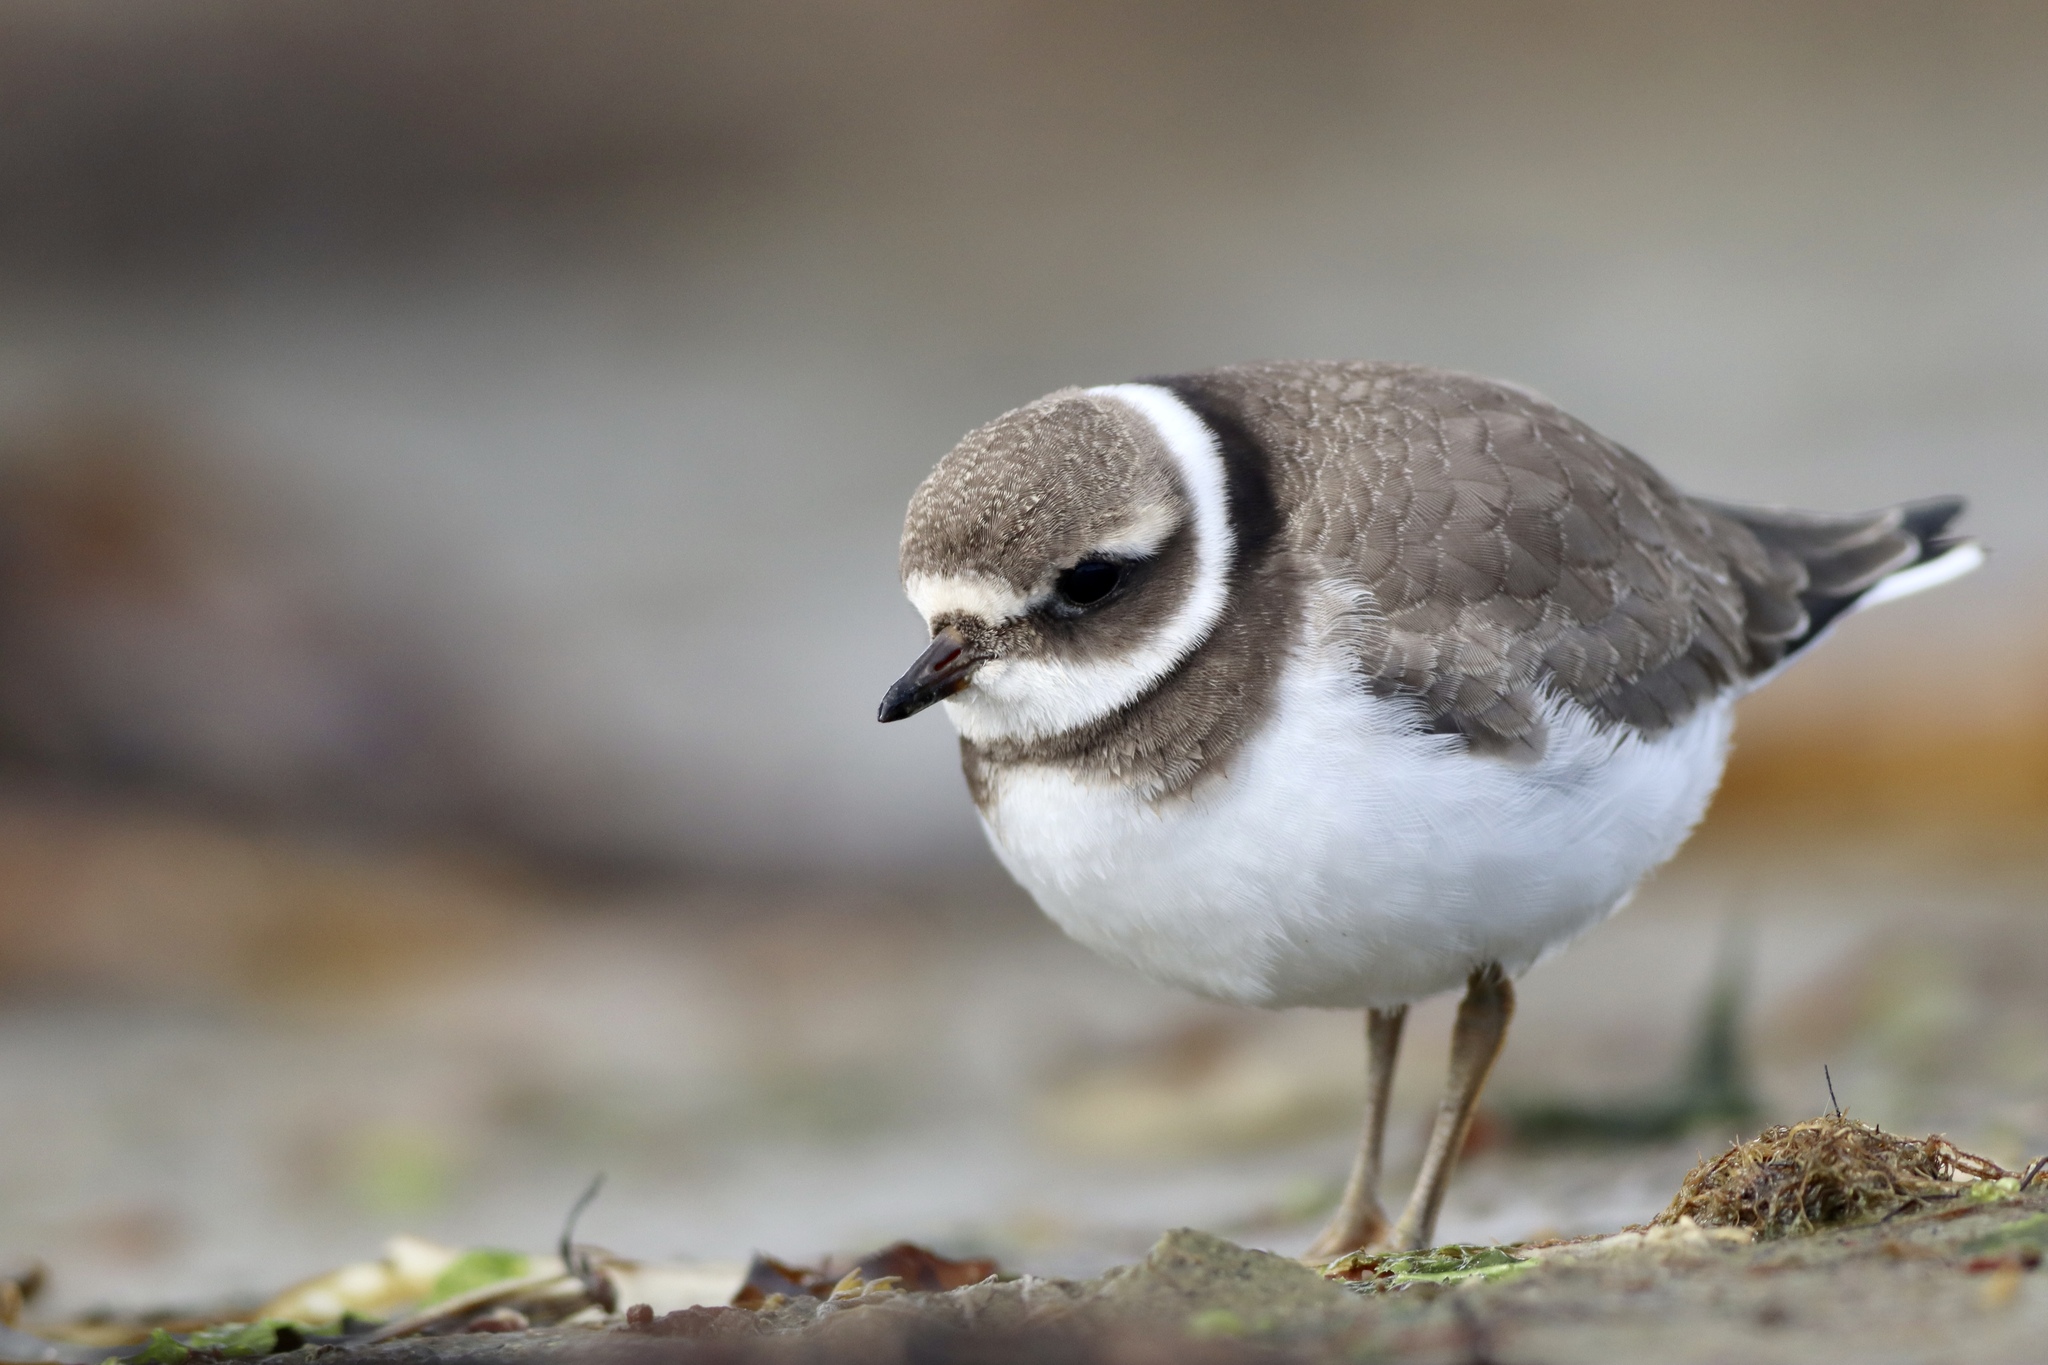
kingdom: Animalia
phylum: Chordata
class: Aves
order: Charadriiformes
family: Charadriidae
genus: Charadrius
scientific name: Charadrius hiaticula
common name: Common ringed plover
